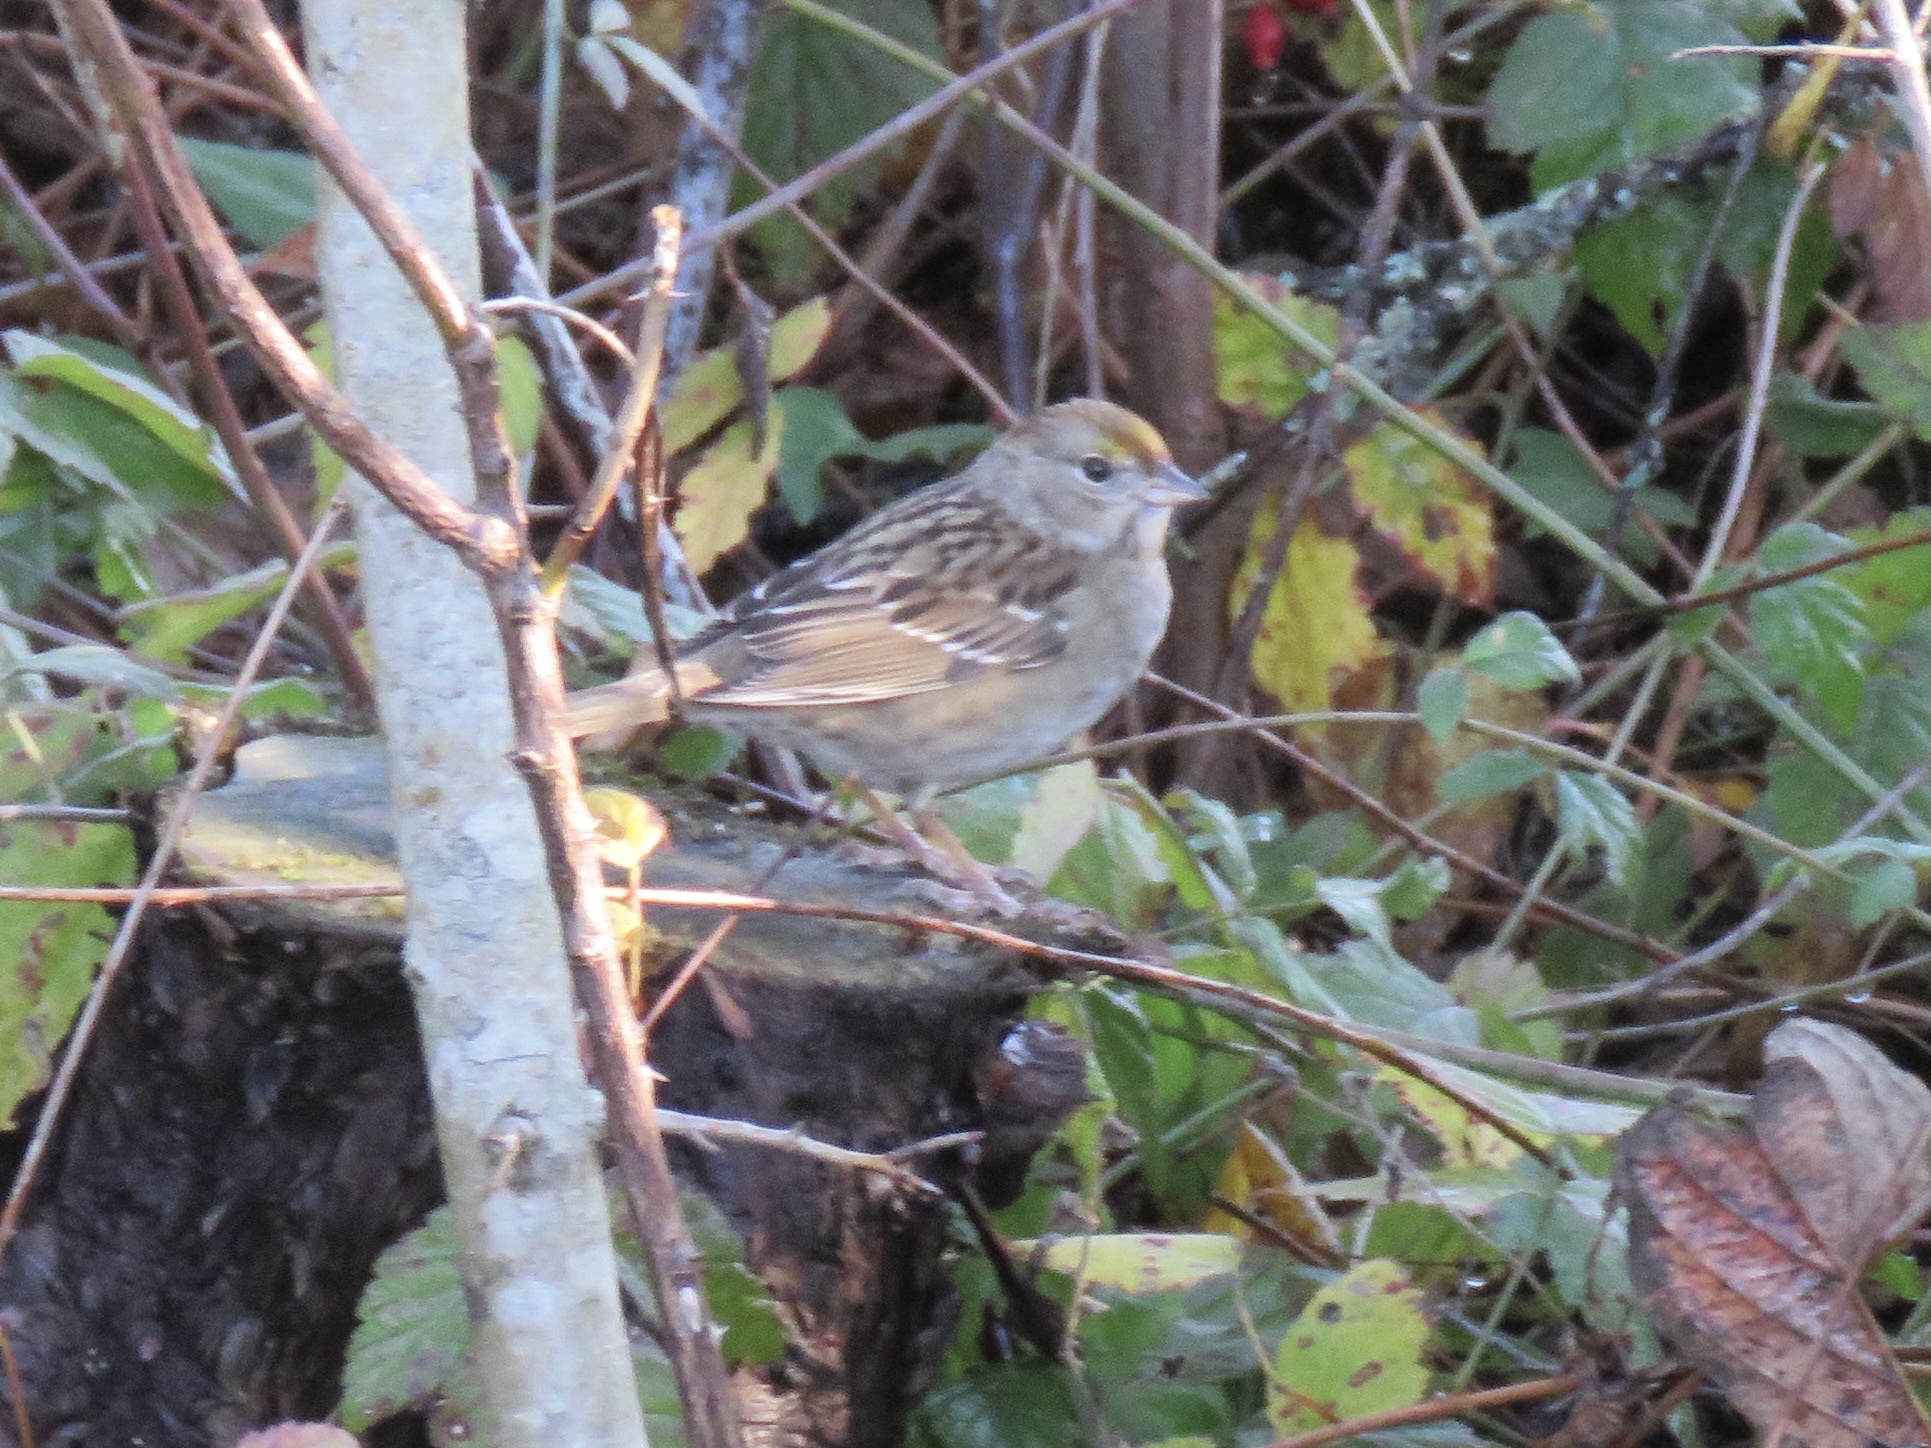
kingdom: Animalia
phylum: Chordata
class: Aves
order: Passeriformes
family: Passerellidae
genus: Zonotrichia
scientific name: Zonotrichia atricapilla
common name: Golden-crowned sparrow
